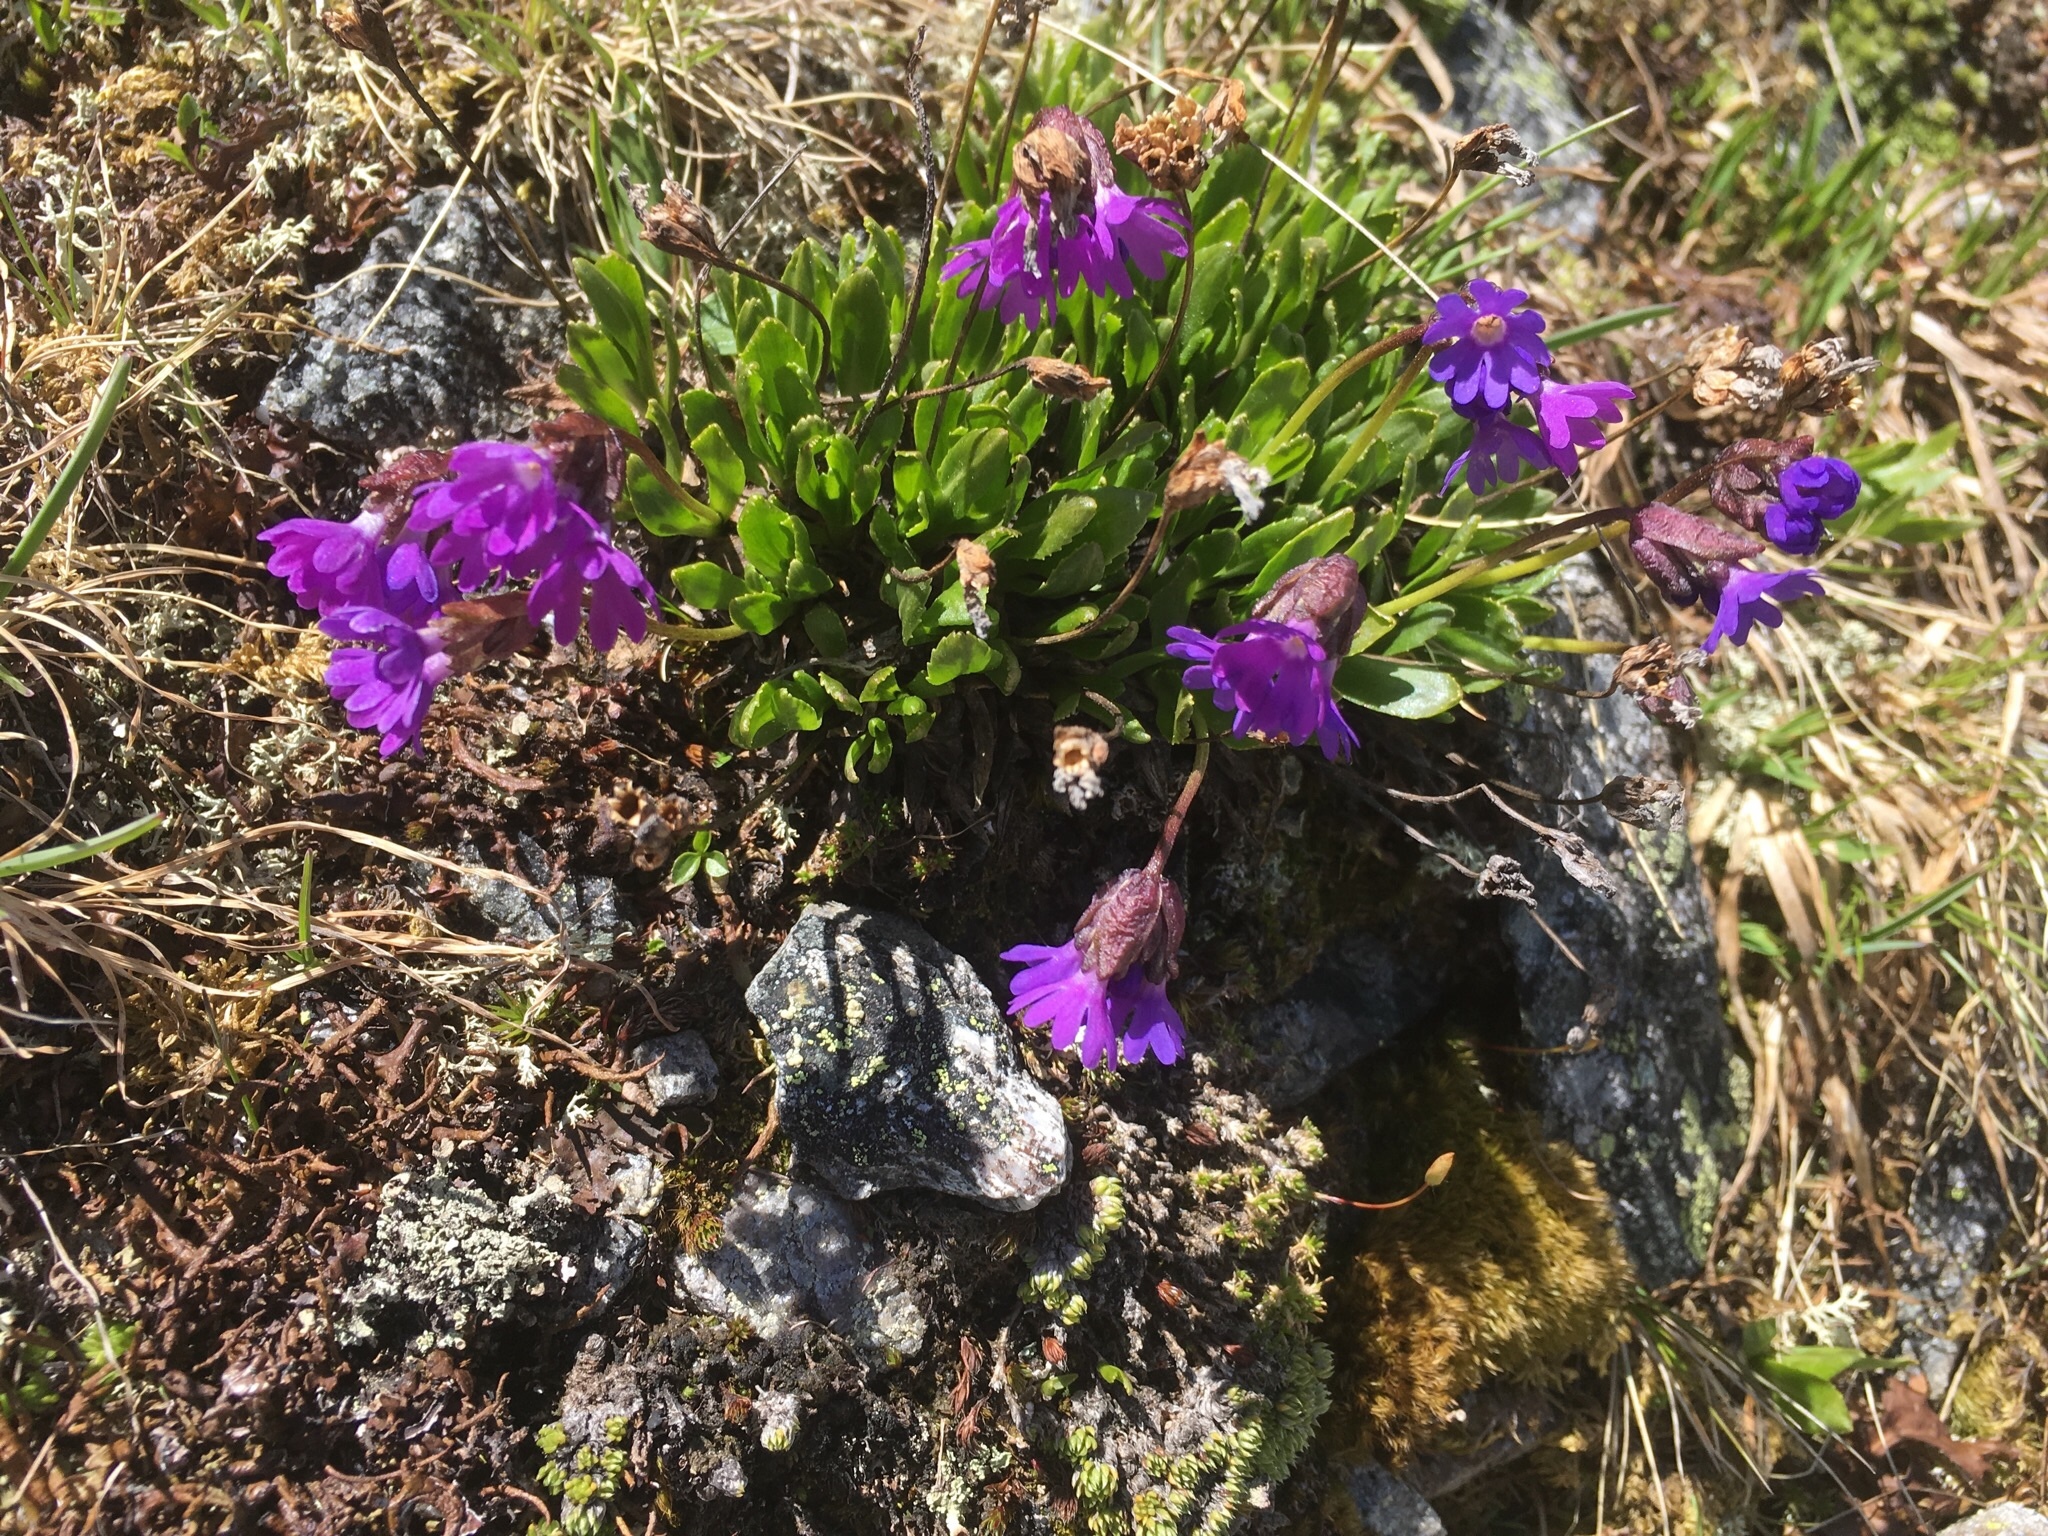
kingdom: Plantae
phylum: Tracheophyta
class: Magnoliopsida
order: Ericales
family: Primulaceae
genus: Primula
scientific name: Primula glutinosa
